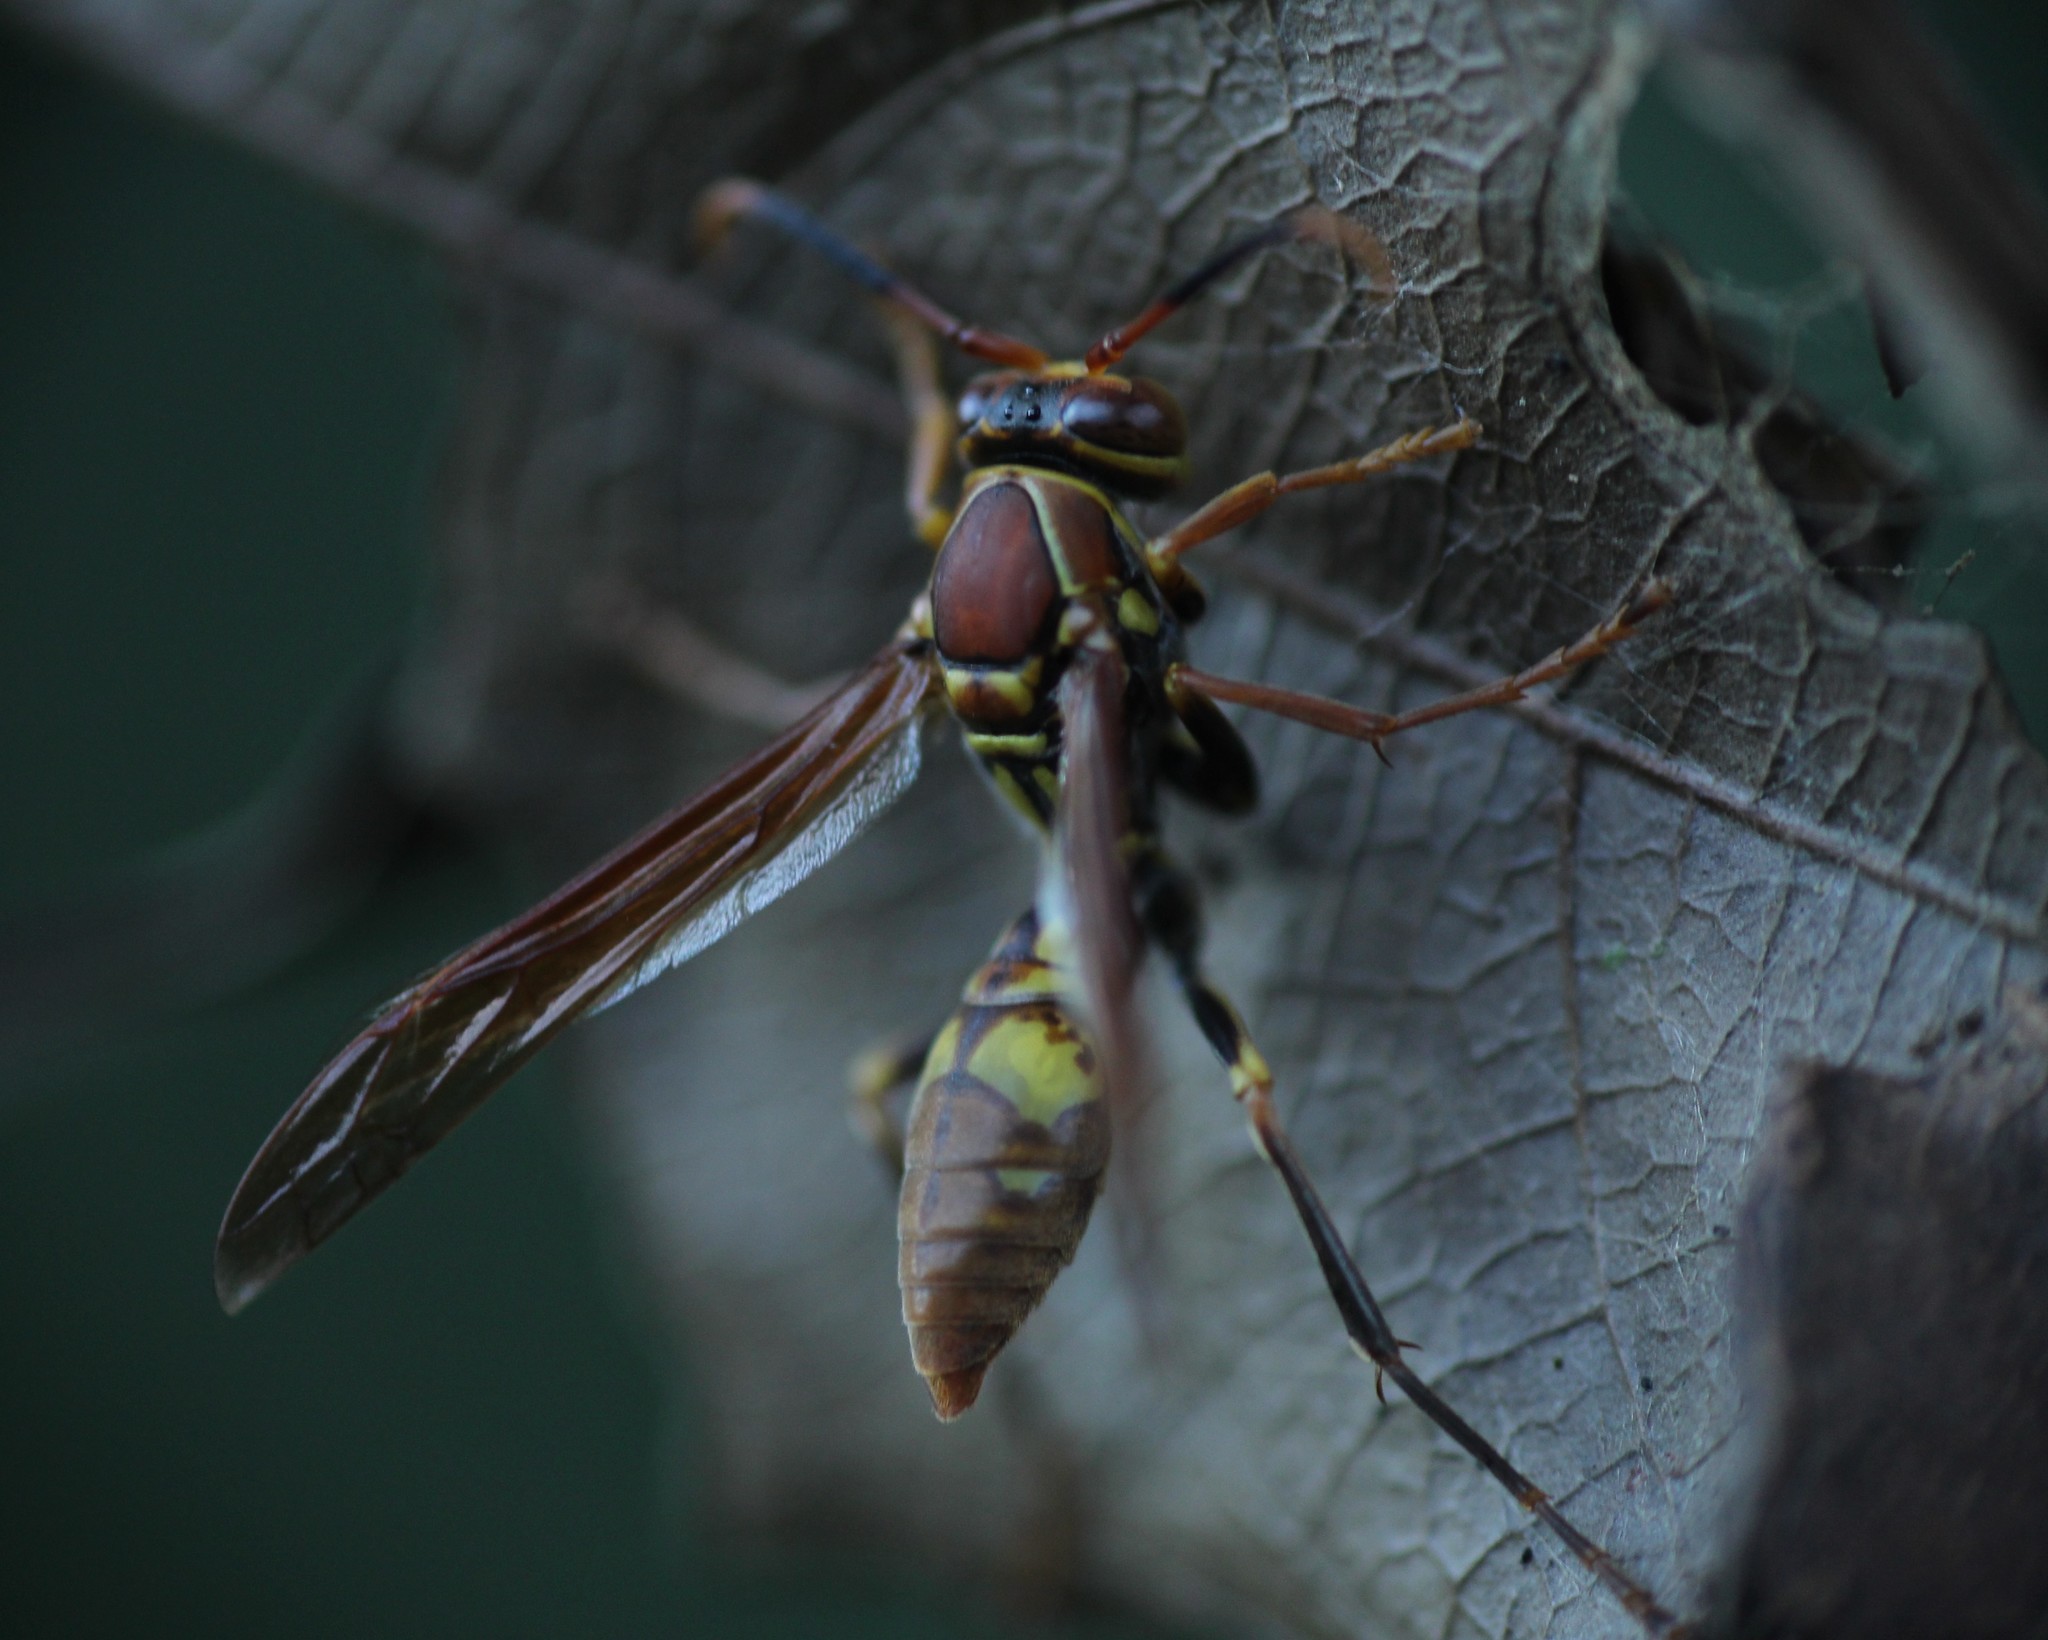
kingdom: Animalia
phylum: Arthropoda
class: Insecta
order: Hymenoptera
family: Eumenidae
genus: Polistes
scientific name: Polistes simillimus
